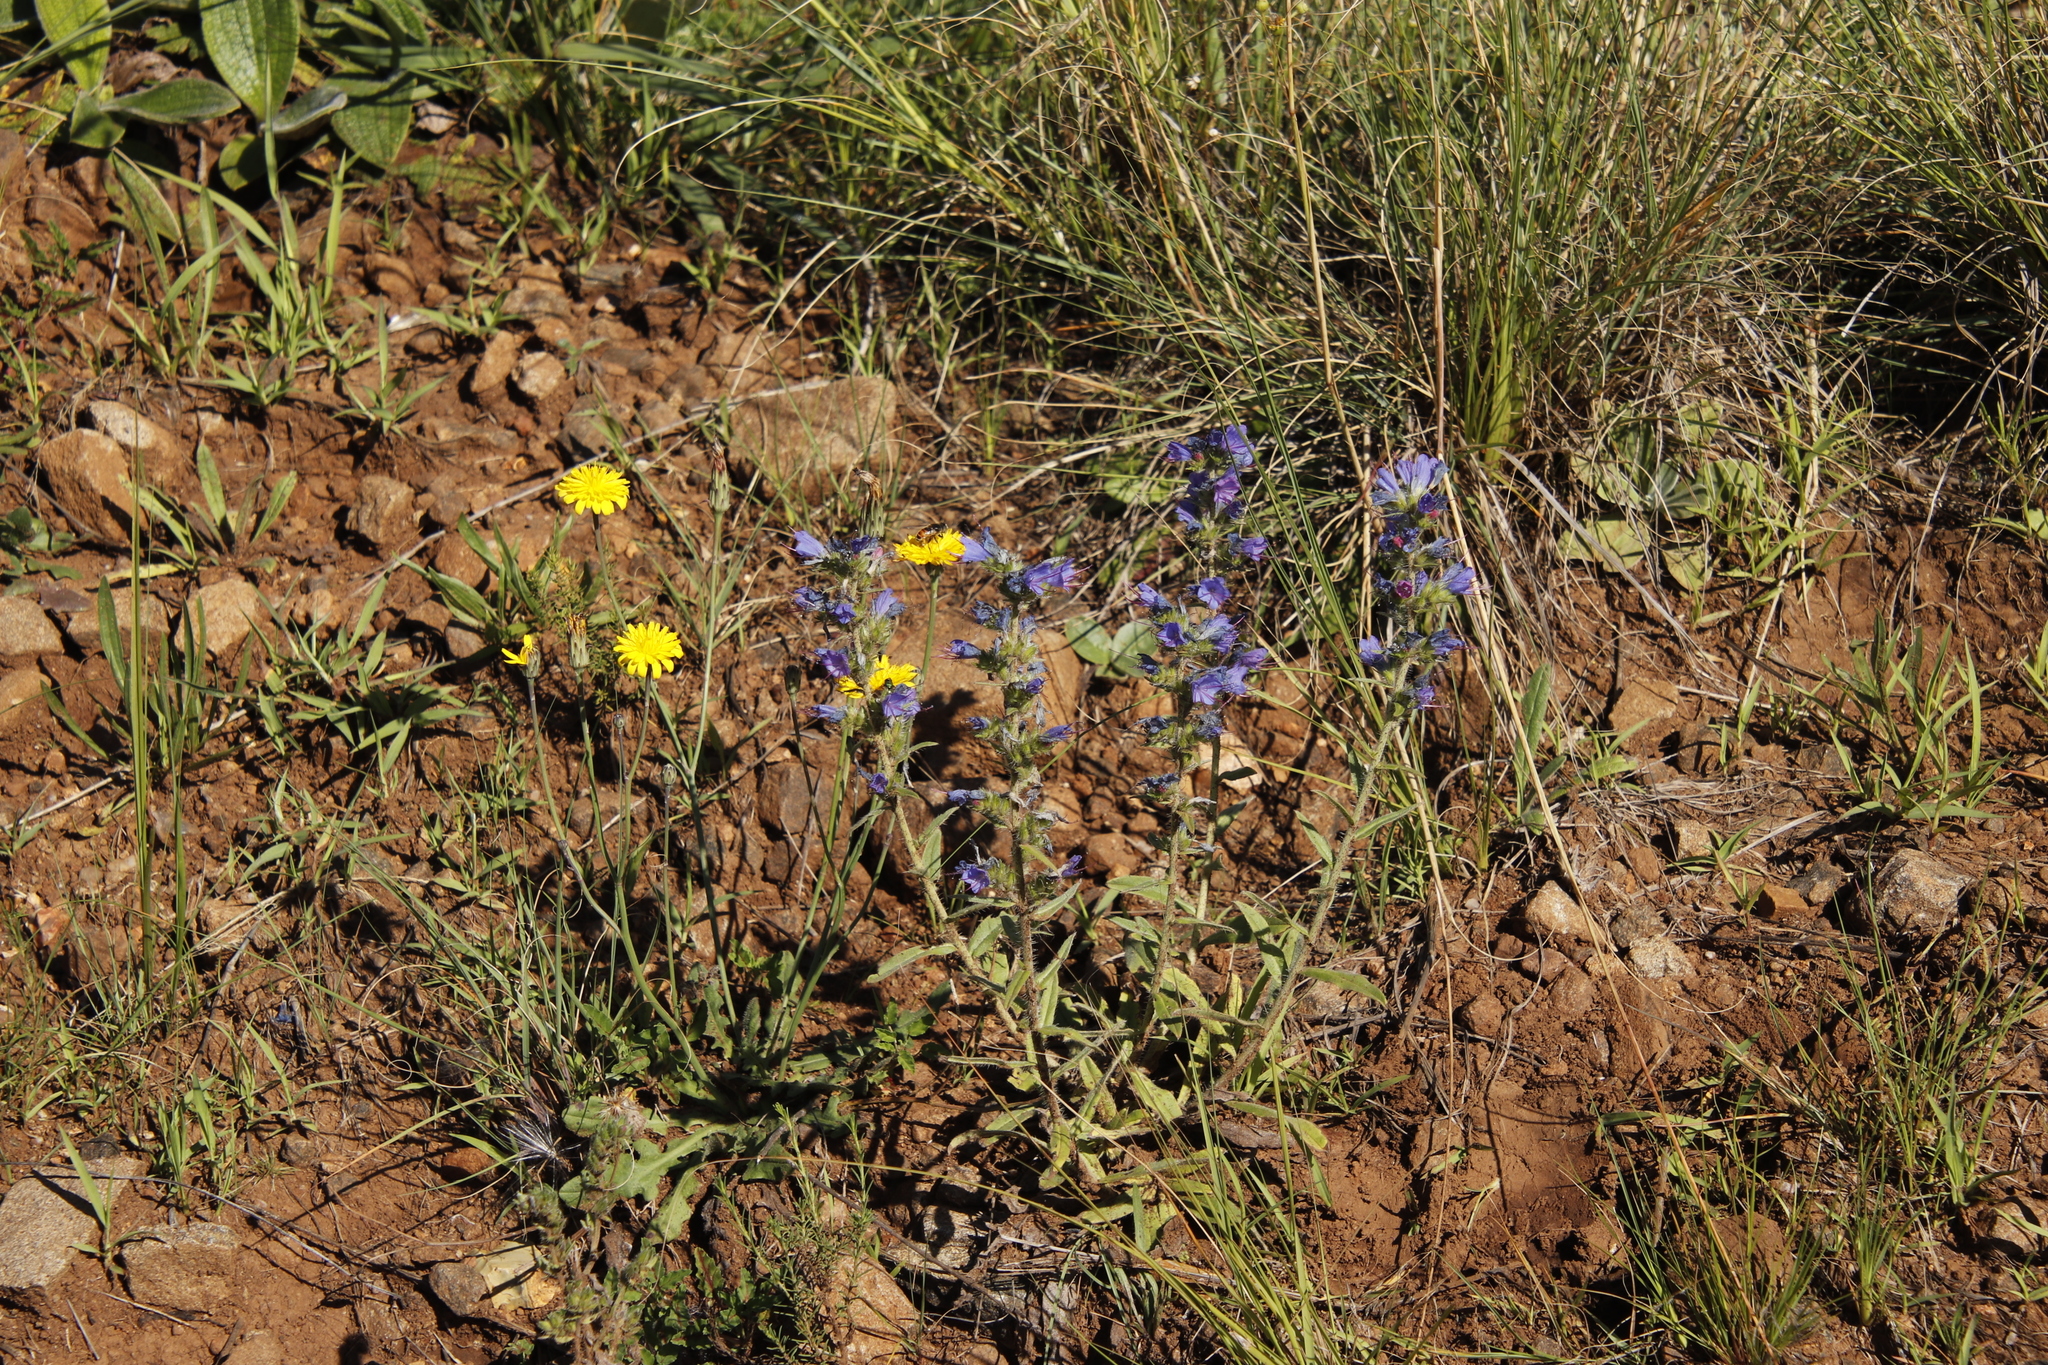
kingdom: Plantae
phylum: Tracheophyta
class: Magnoliopsida
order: Asterales
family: Asteraceae
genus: Hypochaeris
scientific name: Hypochaeris radicata
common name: Flatweed
